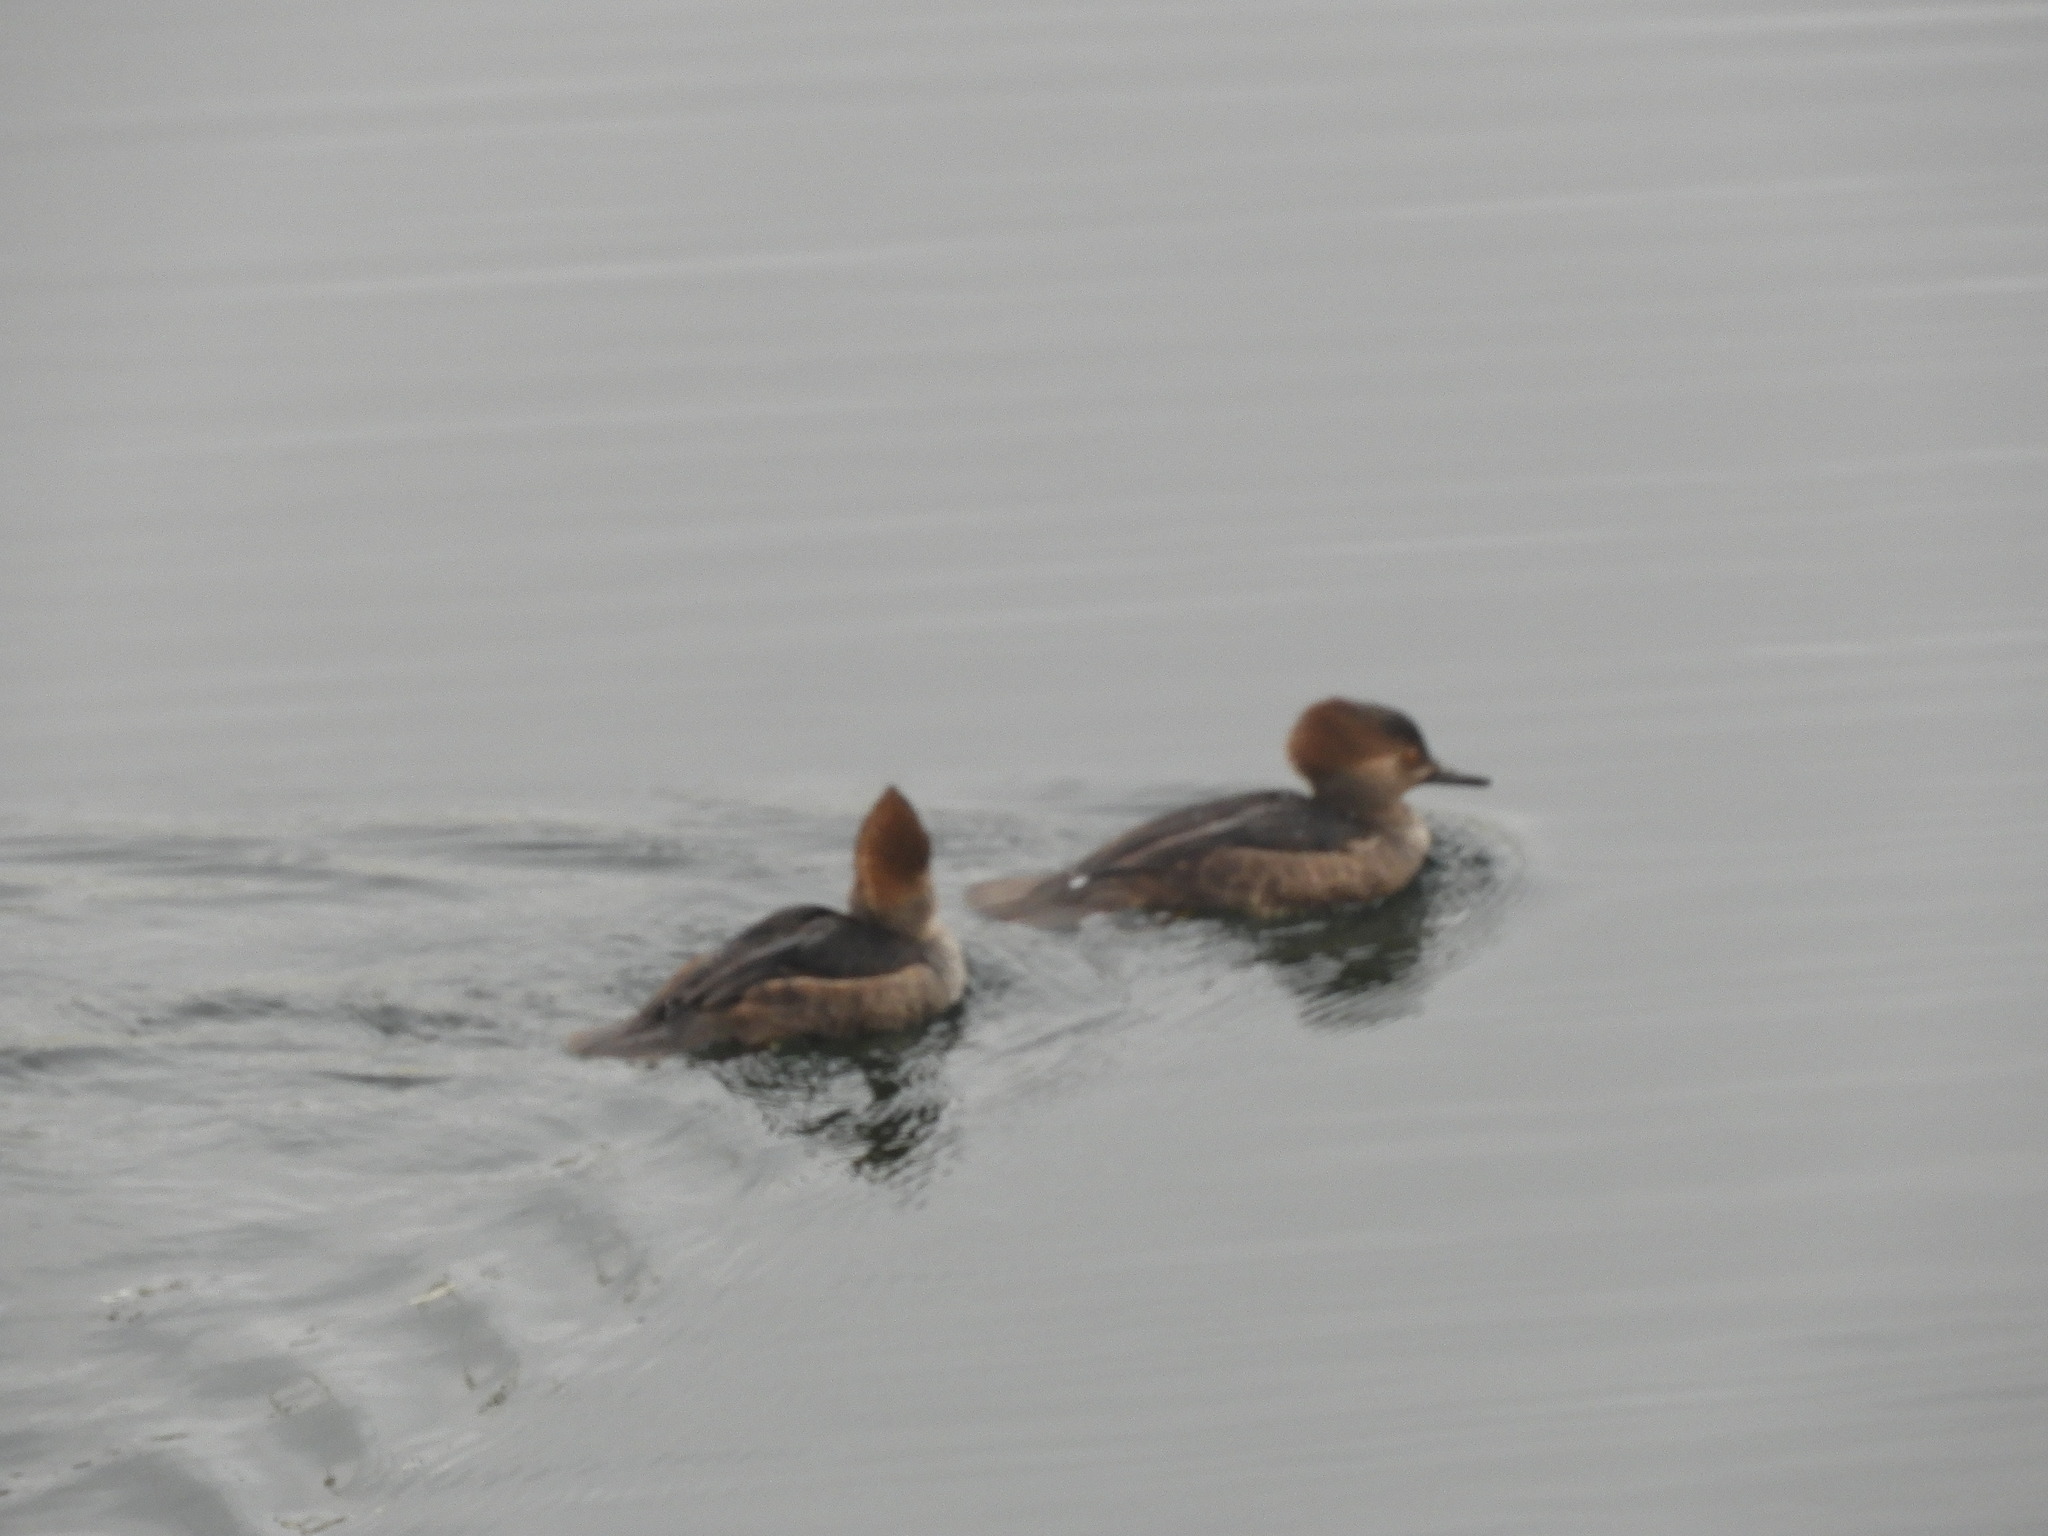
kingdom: Animalia
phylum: Chordata
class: Aves
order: Anseriformes
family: Anatidae
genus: Lophodytes
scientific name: Lophodytes cucullatus
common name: Hooded merganser
